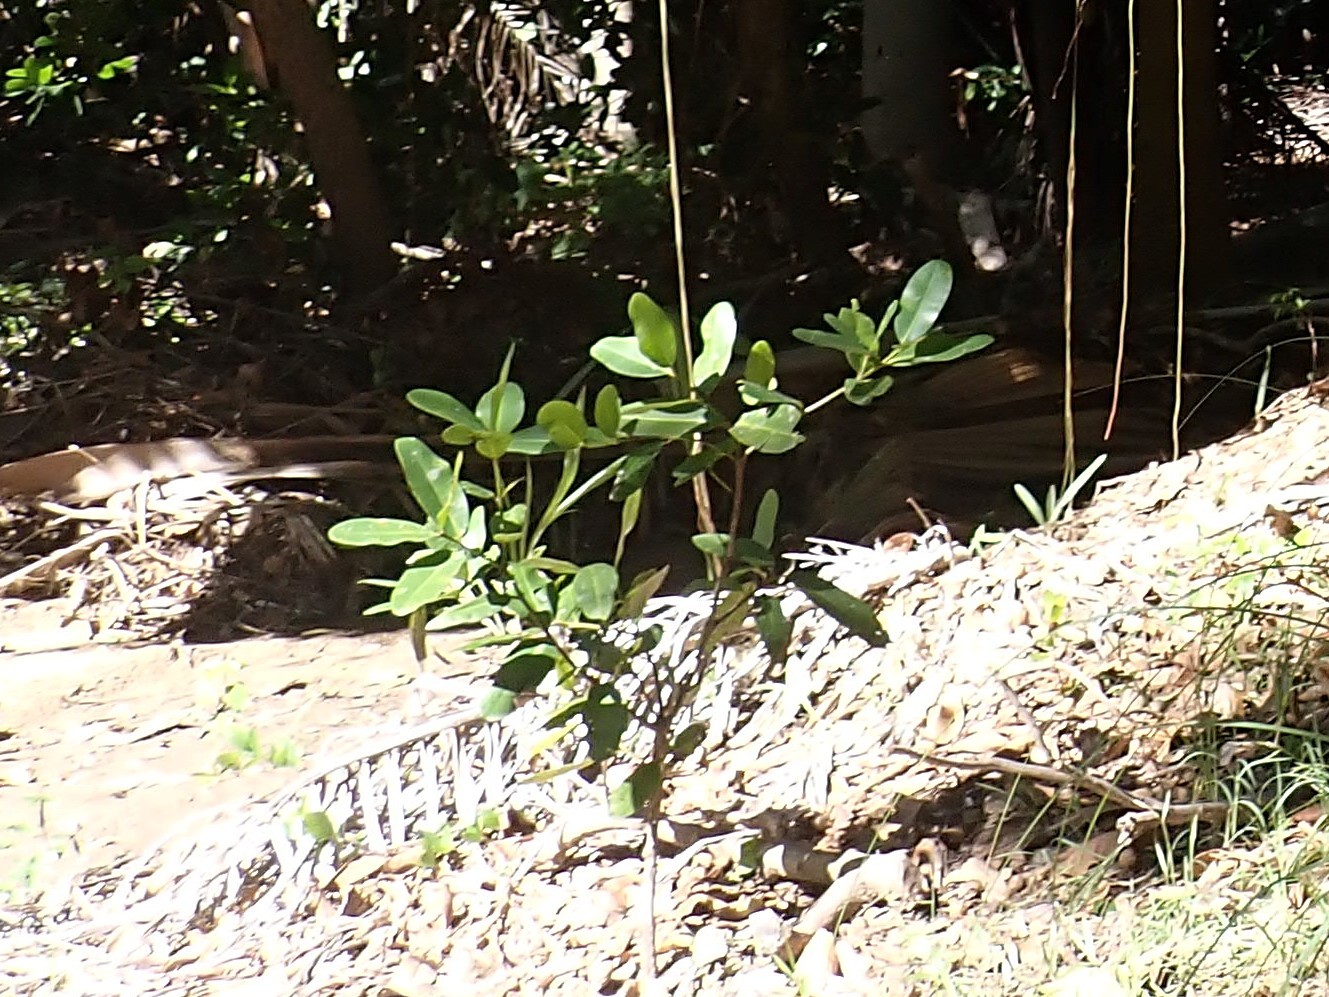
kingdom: Plantae
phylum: Tracheophyta
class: Magnoliopsida
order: Malpighiales
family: Calophyllaceae
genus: Calophyllum
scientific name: Calophyllum antillanum
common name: Santa maria-tree
